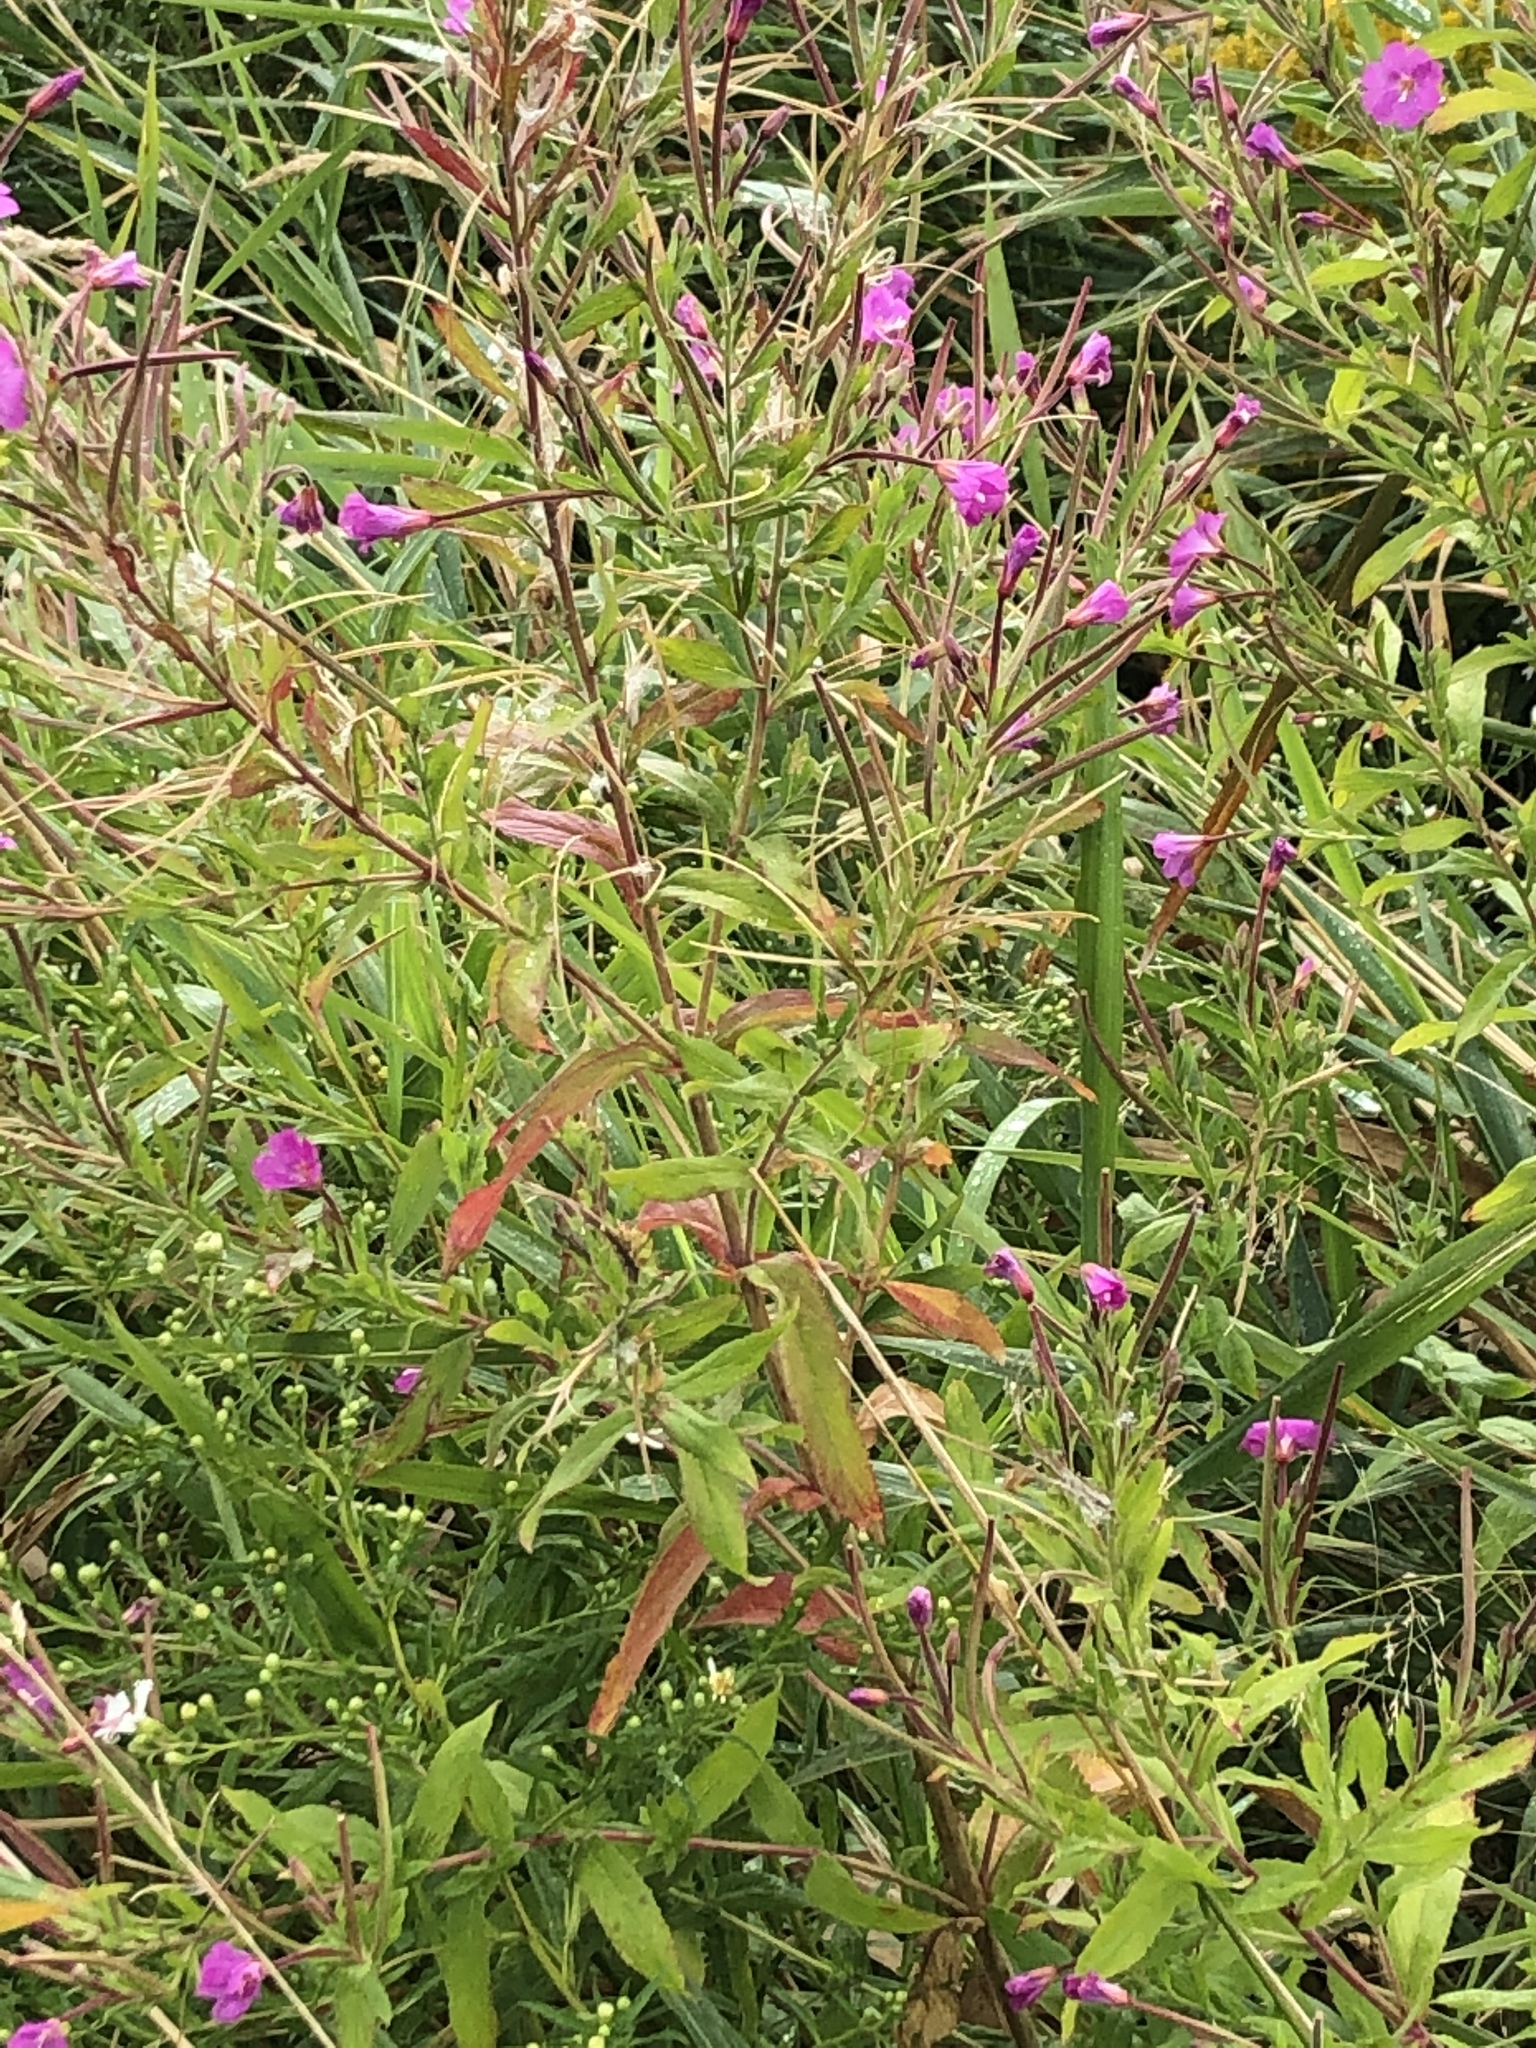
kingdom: Plantae
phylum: Tracheophyta
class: Magnoliopsida
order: Myrtales
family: Onagraceae
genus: Epilobium
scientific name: Epilobium hirsutum
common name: Great willowherb
